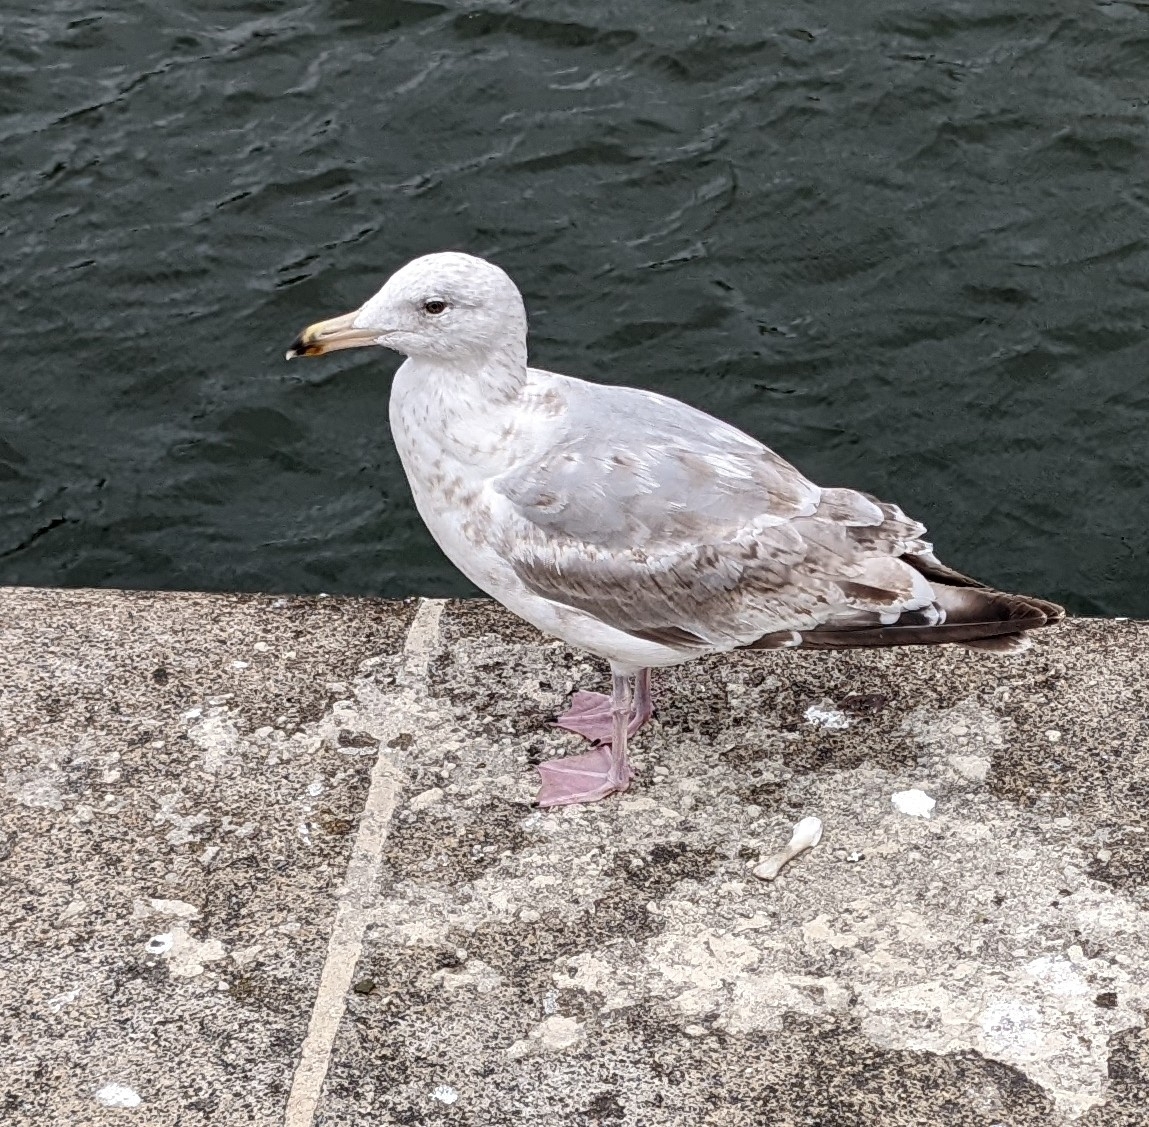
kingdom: Animalia
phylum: Chordata
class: Aves
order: Charadriiformes
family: Laridae
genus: Larus
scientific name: Larus argentatus
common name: Herring gull
